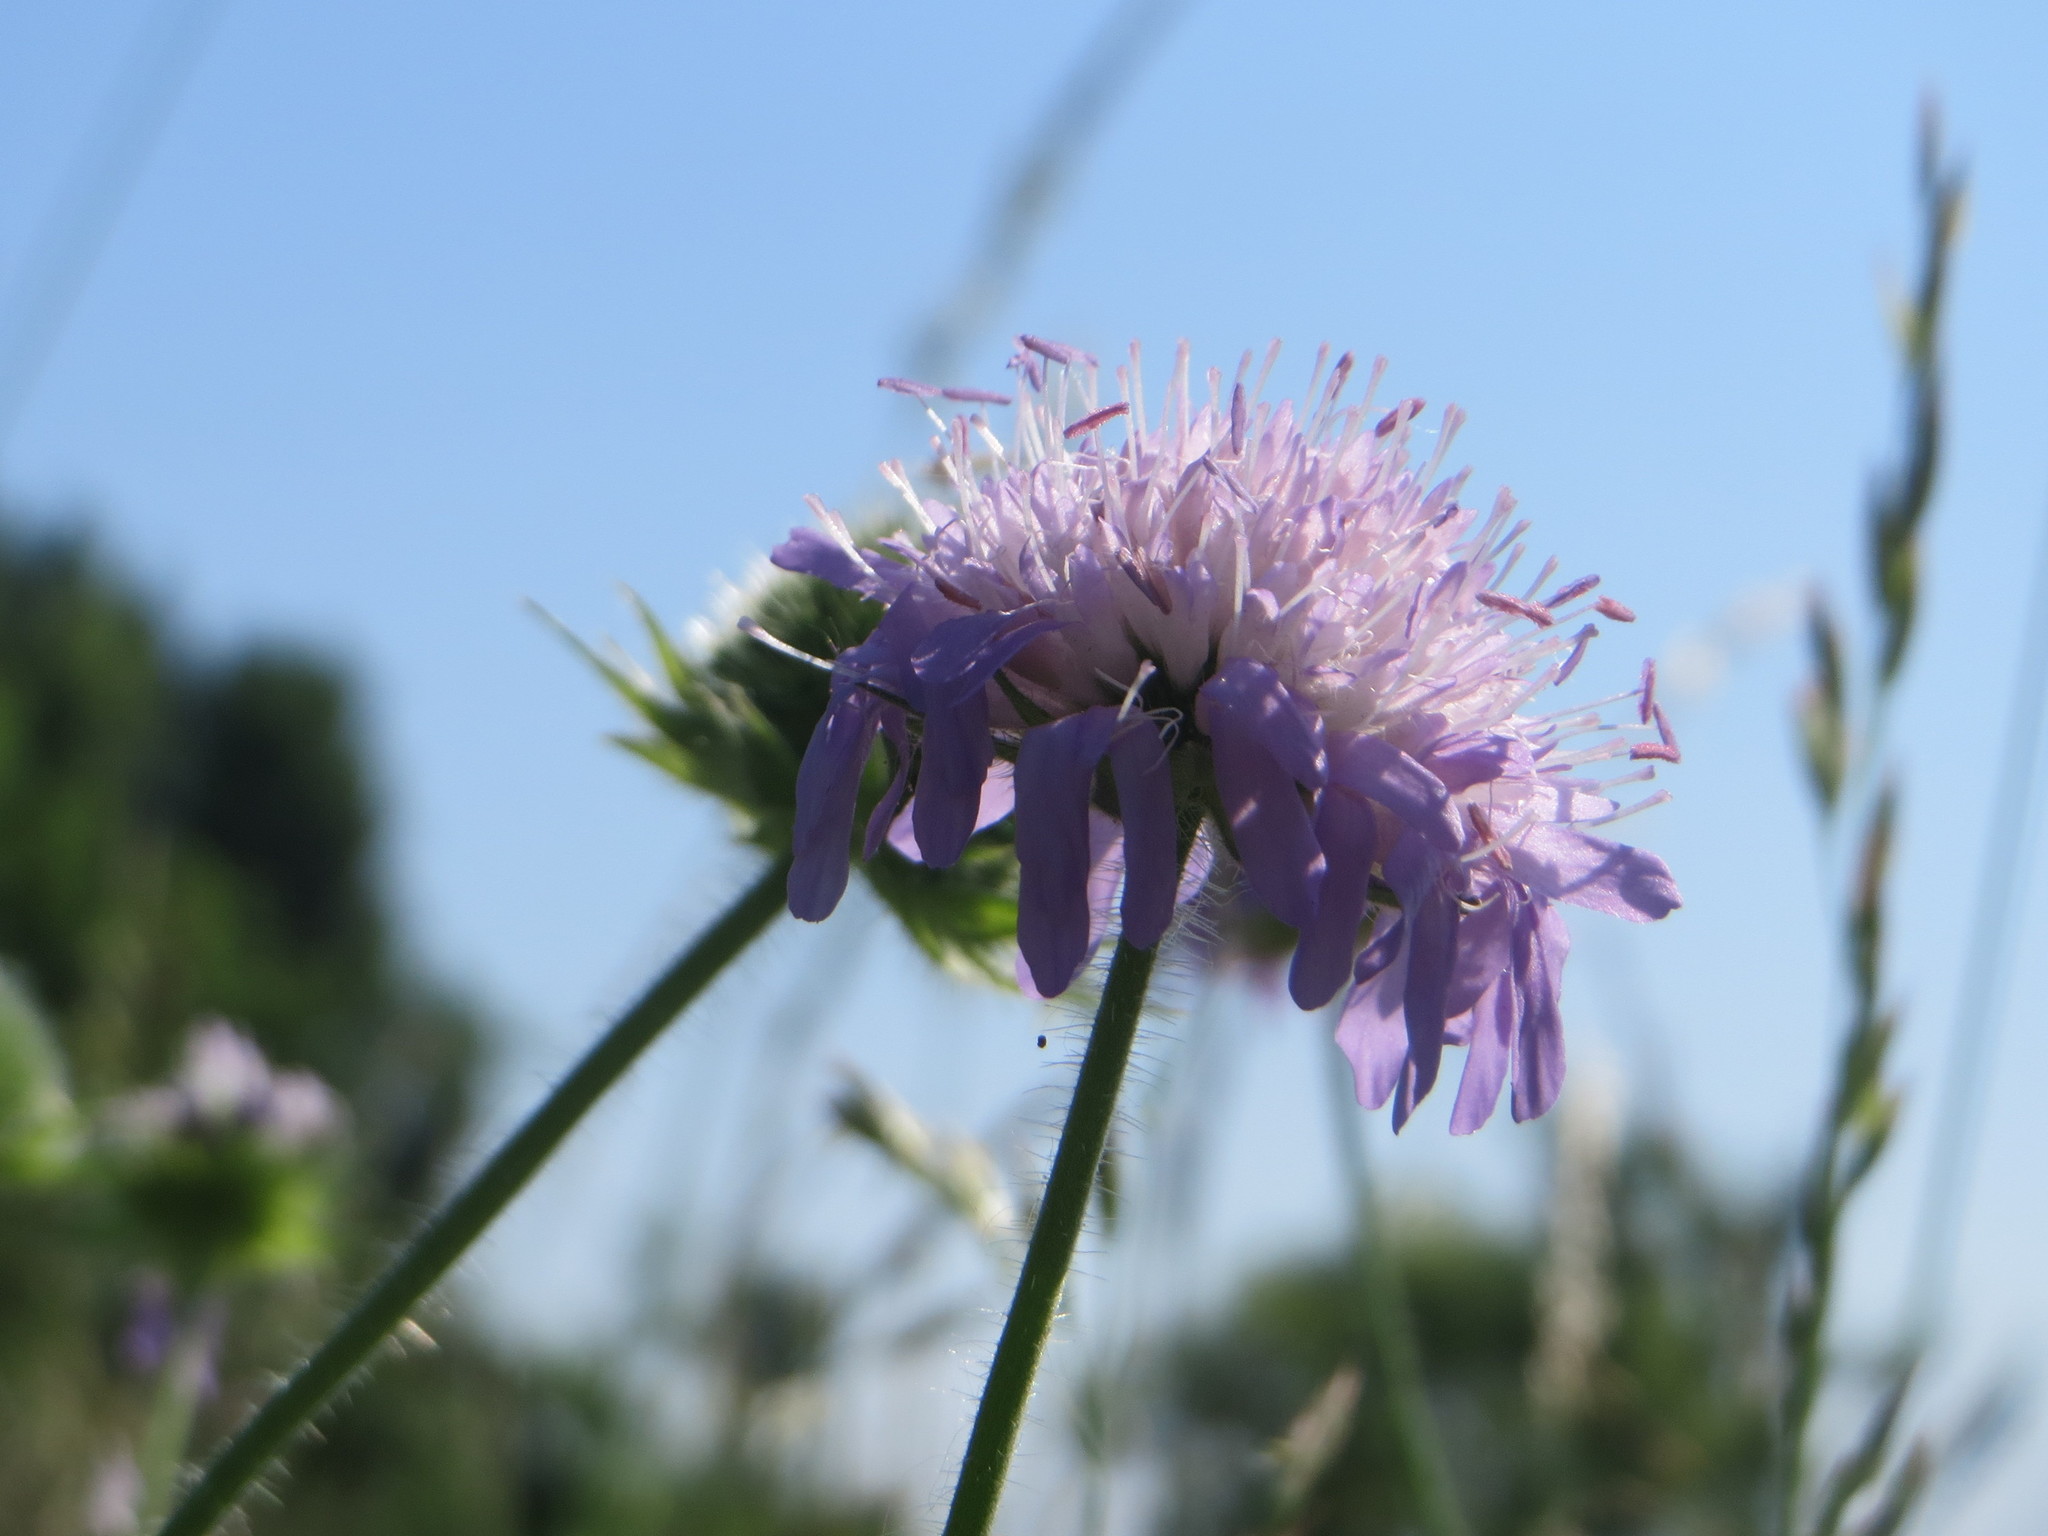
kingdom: Plantae
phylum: Tracheophyta
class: Magnoliopsida
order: Dipsacales
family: Caprifoliaceae
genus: Knautia
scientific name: Knautia arvensis
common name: Field scabiosa
